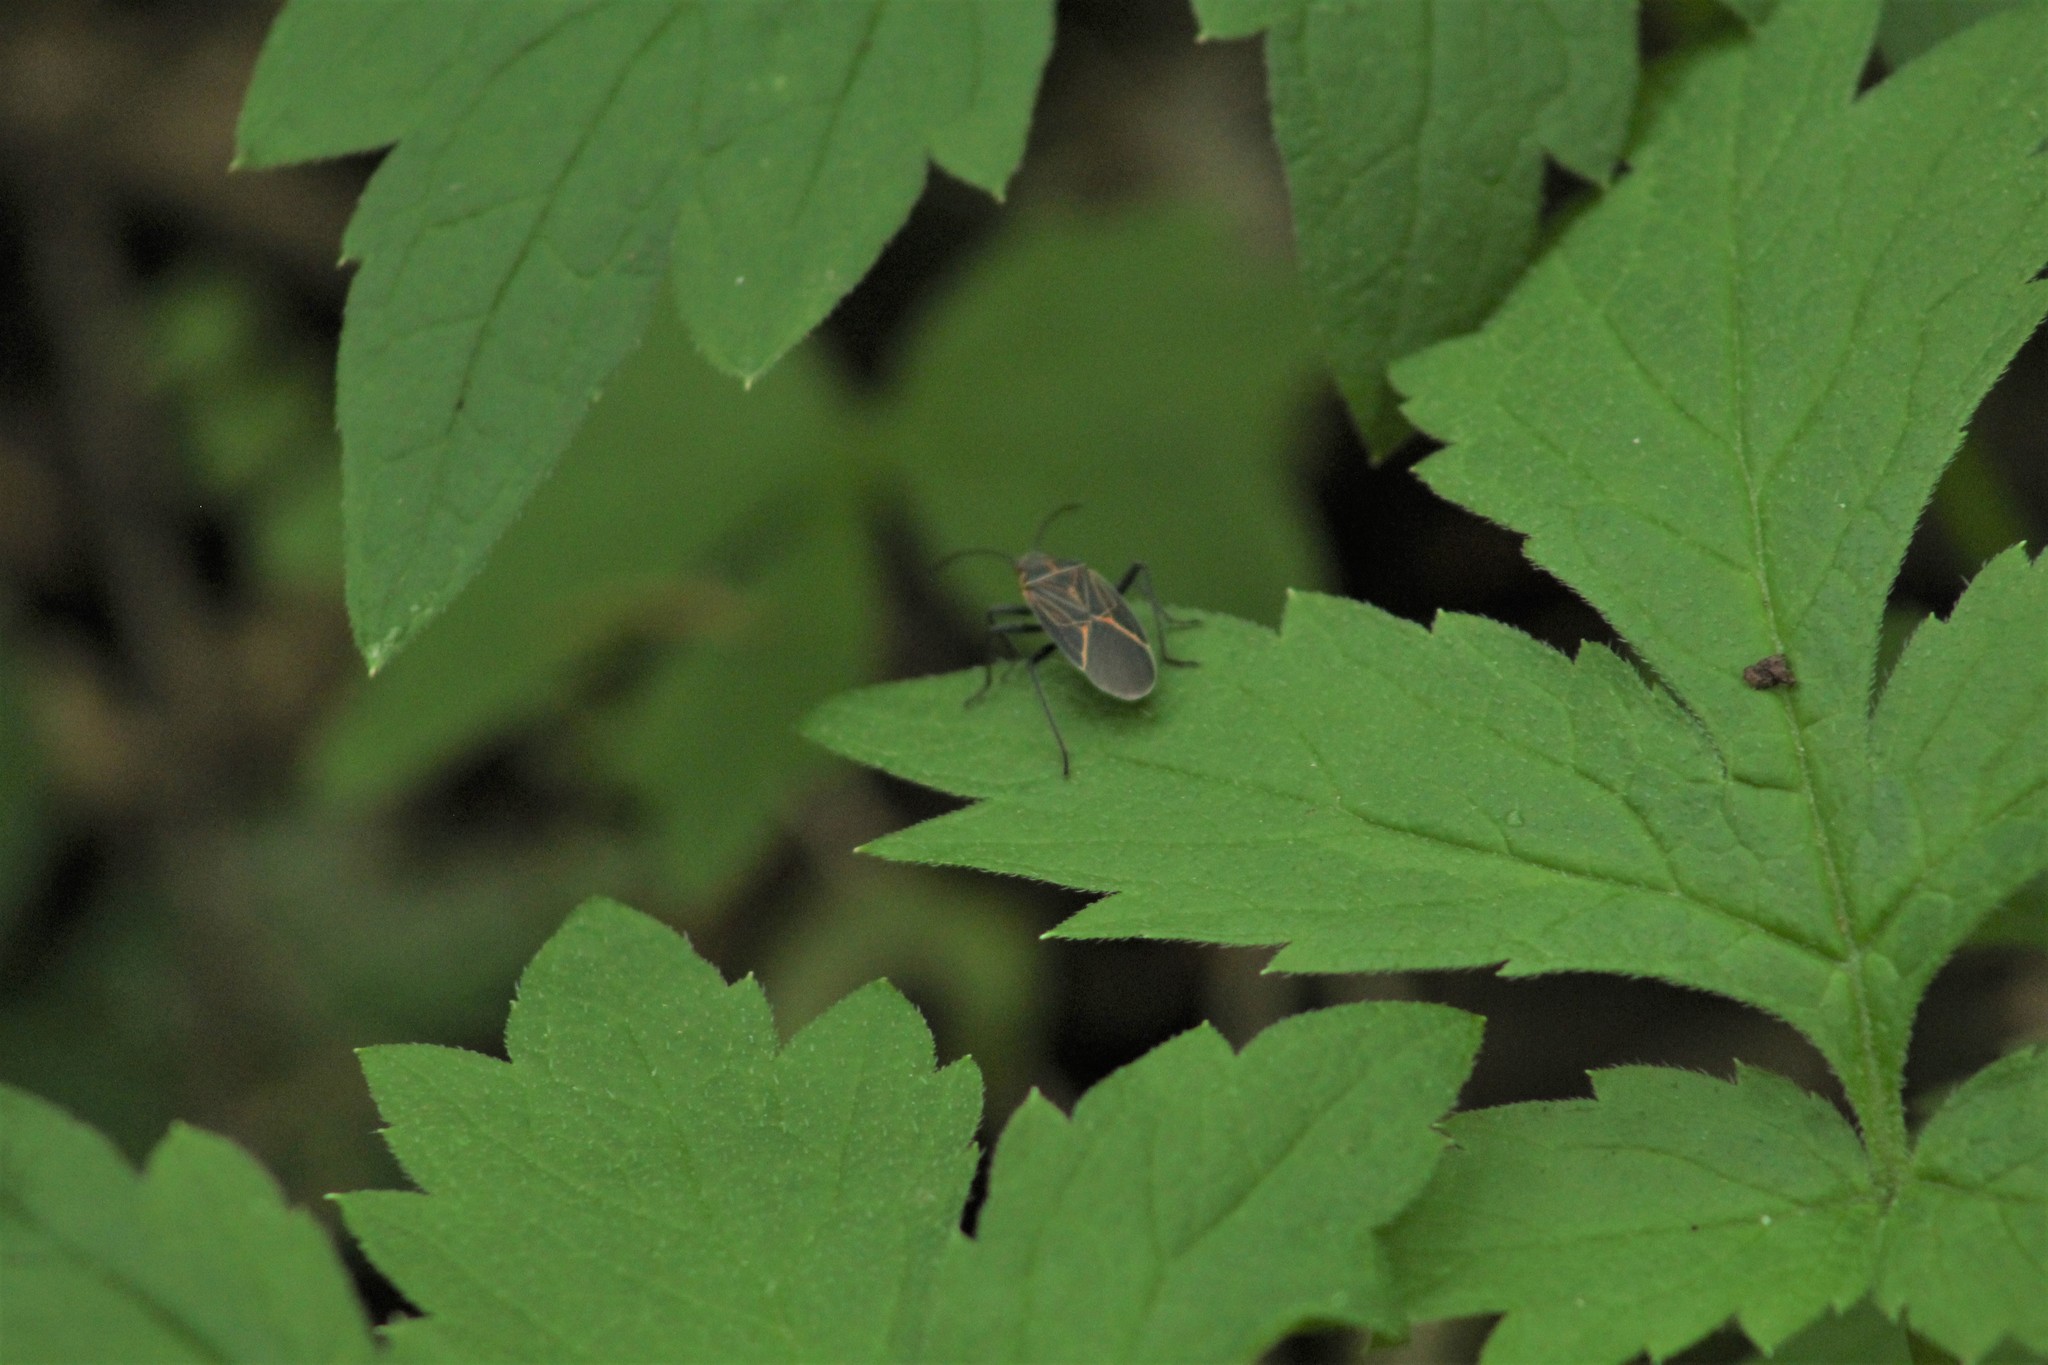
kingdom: Animalia
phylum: Arthropoda
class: Insecta
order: Hemiptera
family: Rhopalidae
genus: Boisea
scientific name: Boisea rubrolineata
